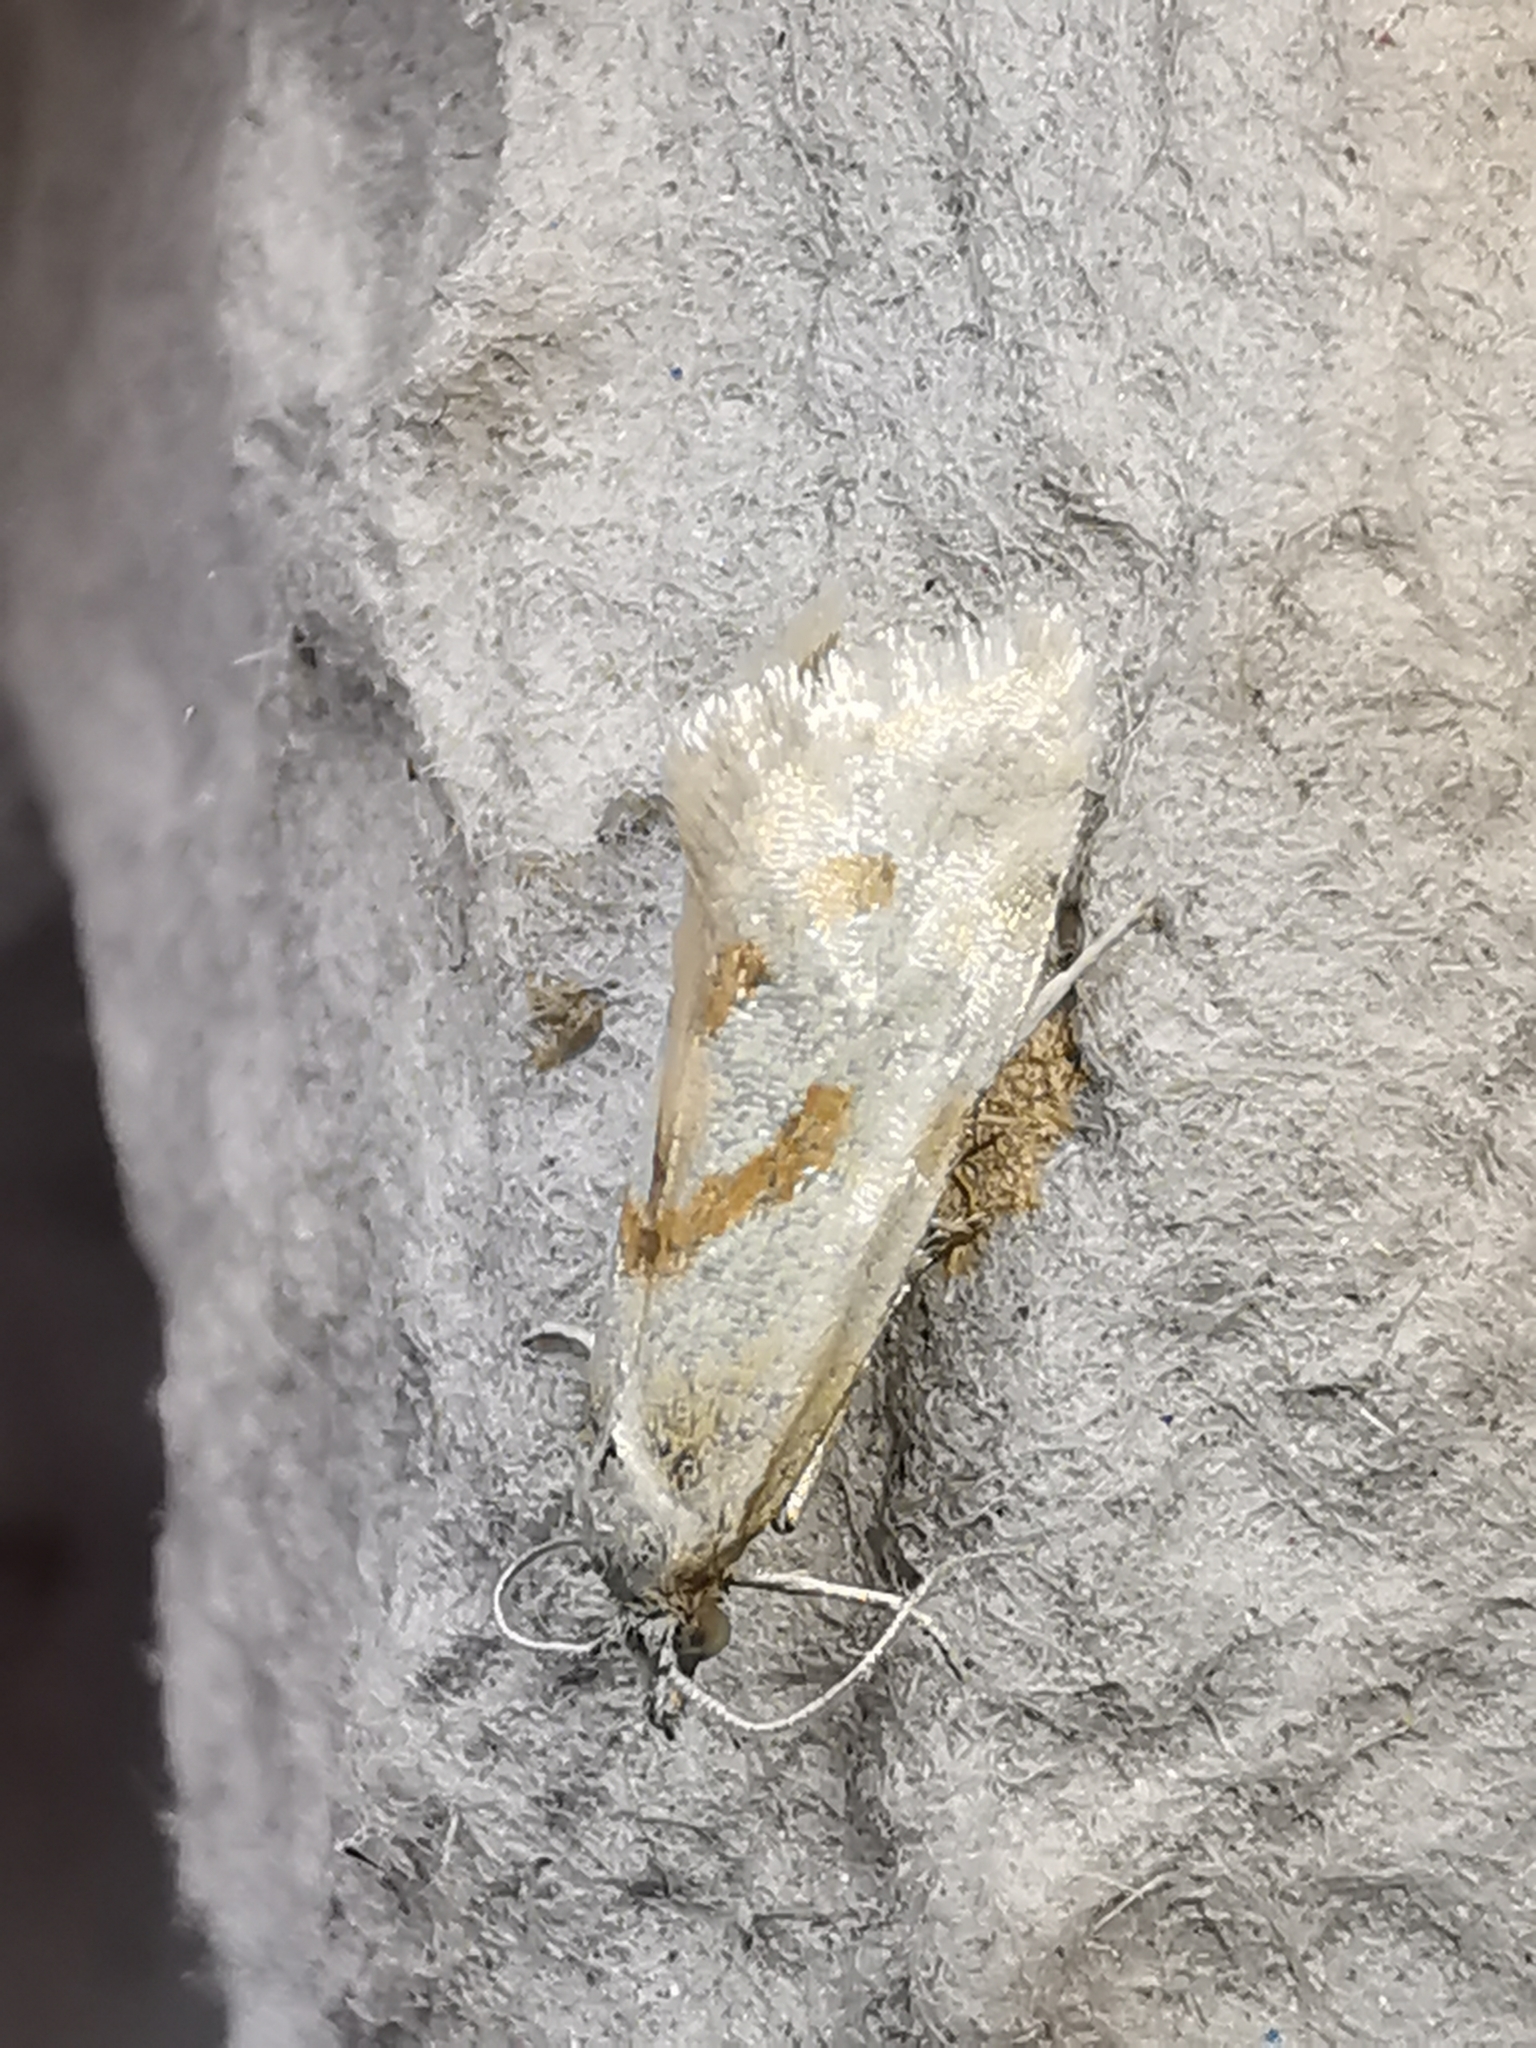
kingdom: Animalia
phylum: Arthropoda
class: Insecta
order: Lepidoptera
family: Tortricidae
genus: Aethes
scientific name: Aethes smeathmanniana
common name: Yarrow conch
